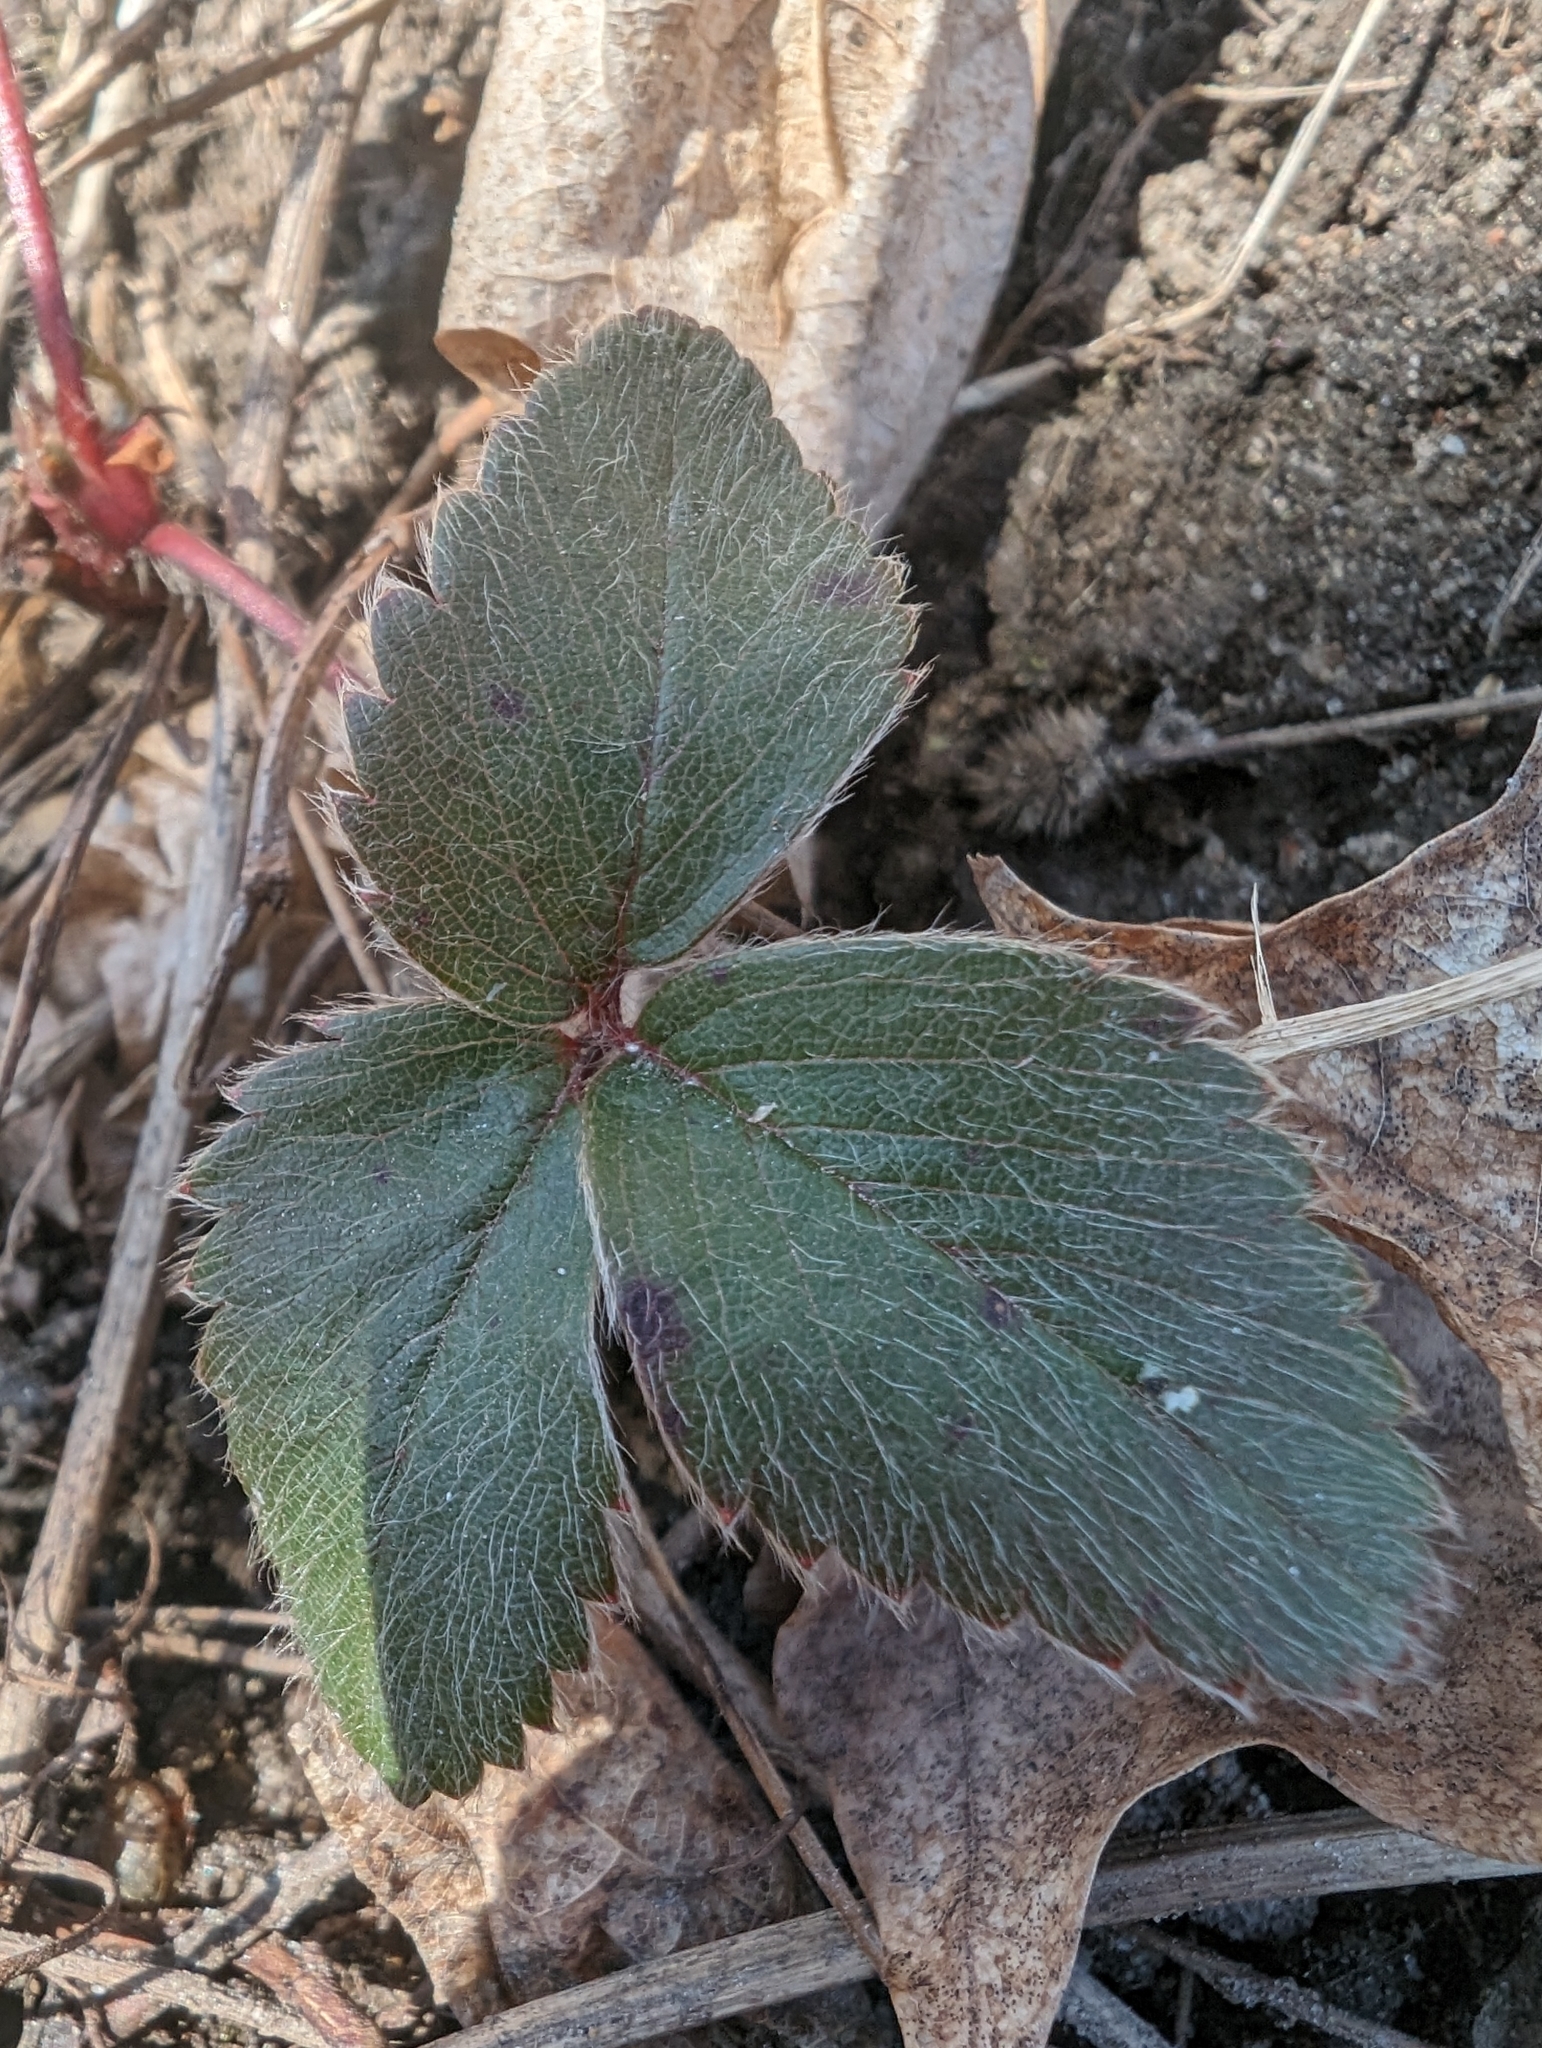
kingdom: Plantae
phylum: Tracheophyta
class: Magnoliopsida
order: Rosales
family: Rosaceae
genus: Fragaria
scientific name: Fragaria virginiana
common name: Thickleaved wild strawberry
